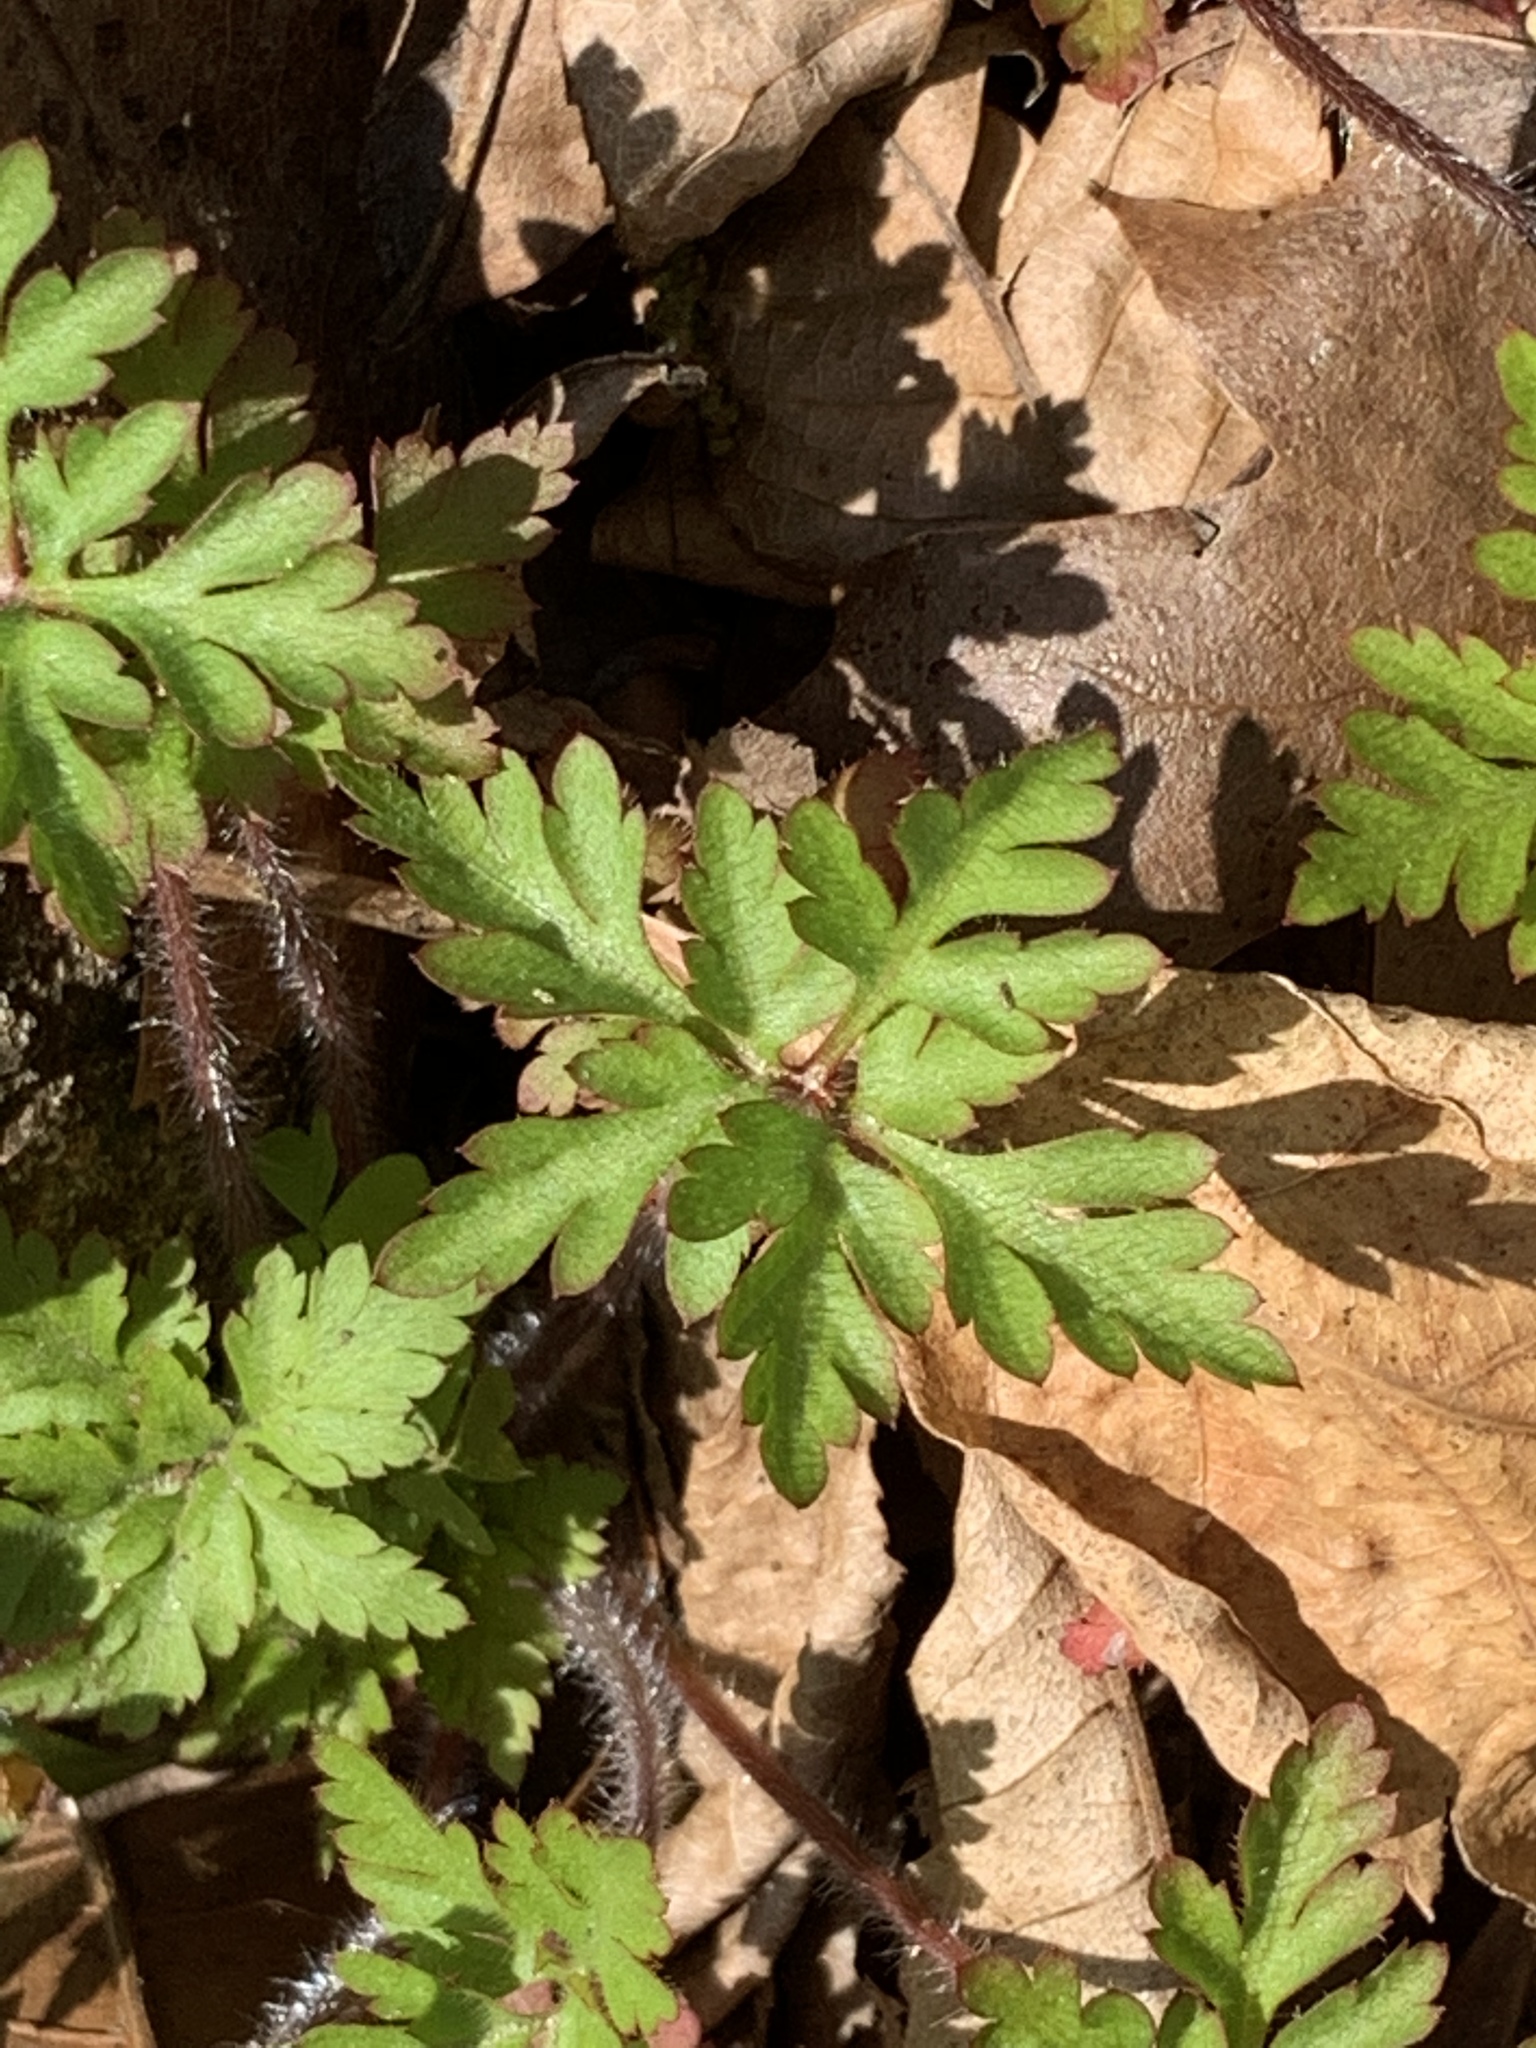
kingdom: Plantae
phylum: Tracheophyta
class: Magnoliopsida
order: Geraniales
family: Geraniaceae
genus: Geranium
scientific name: Geranium robertianum
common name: Herb-robert
